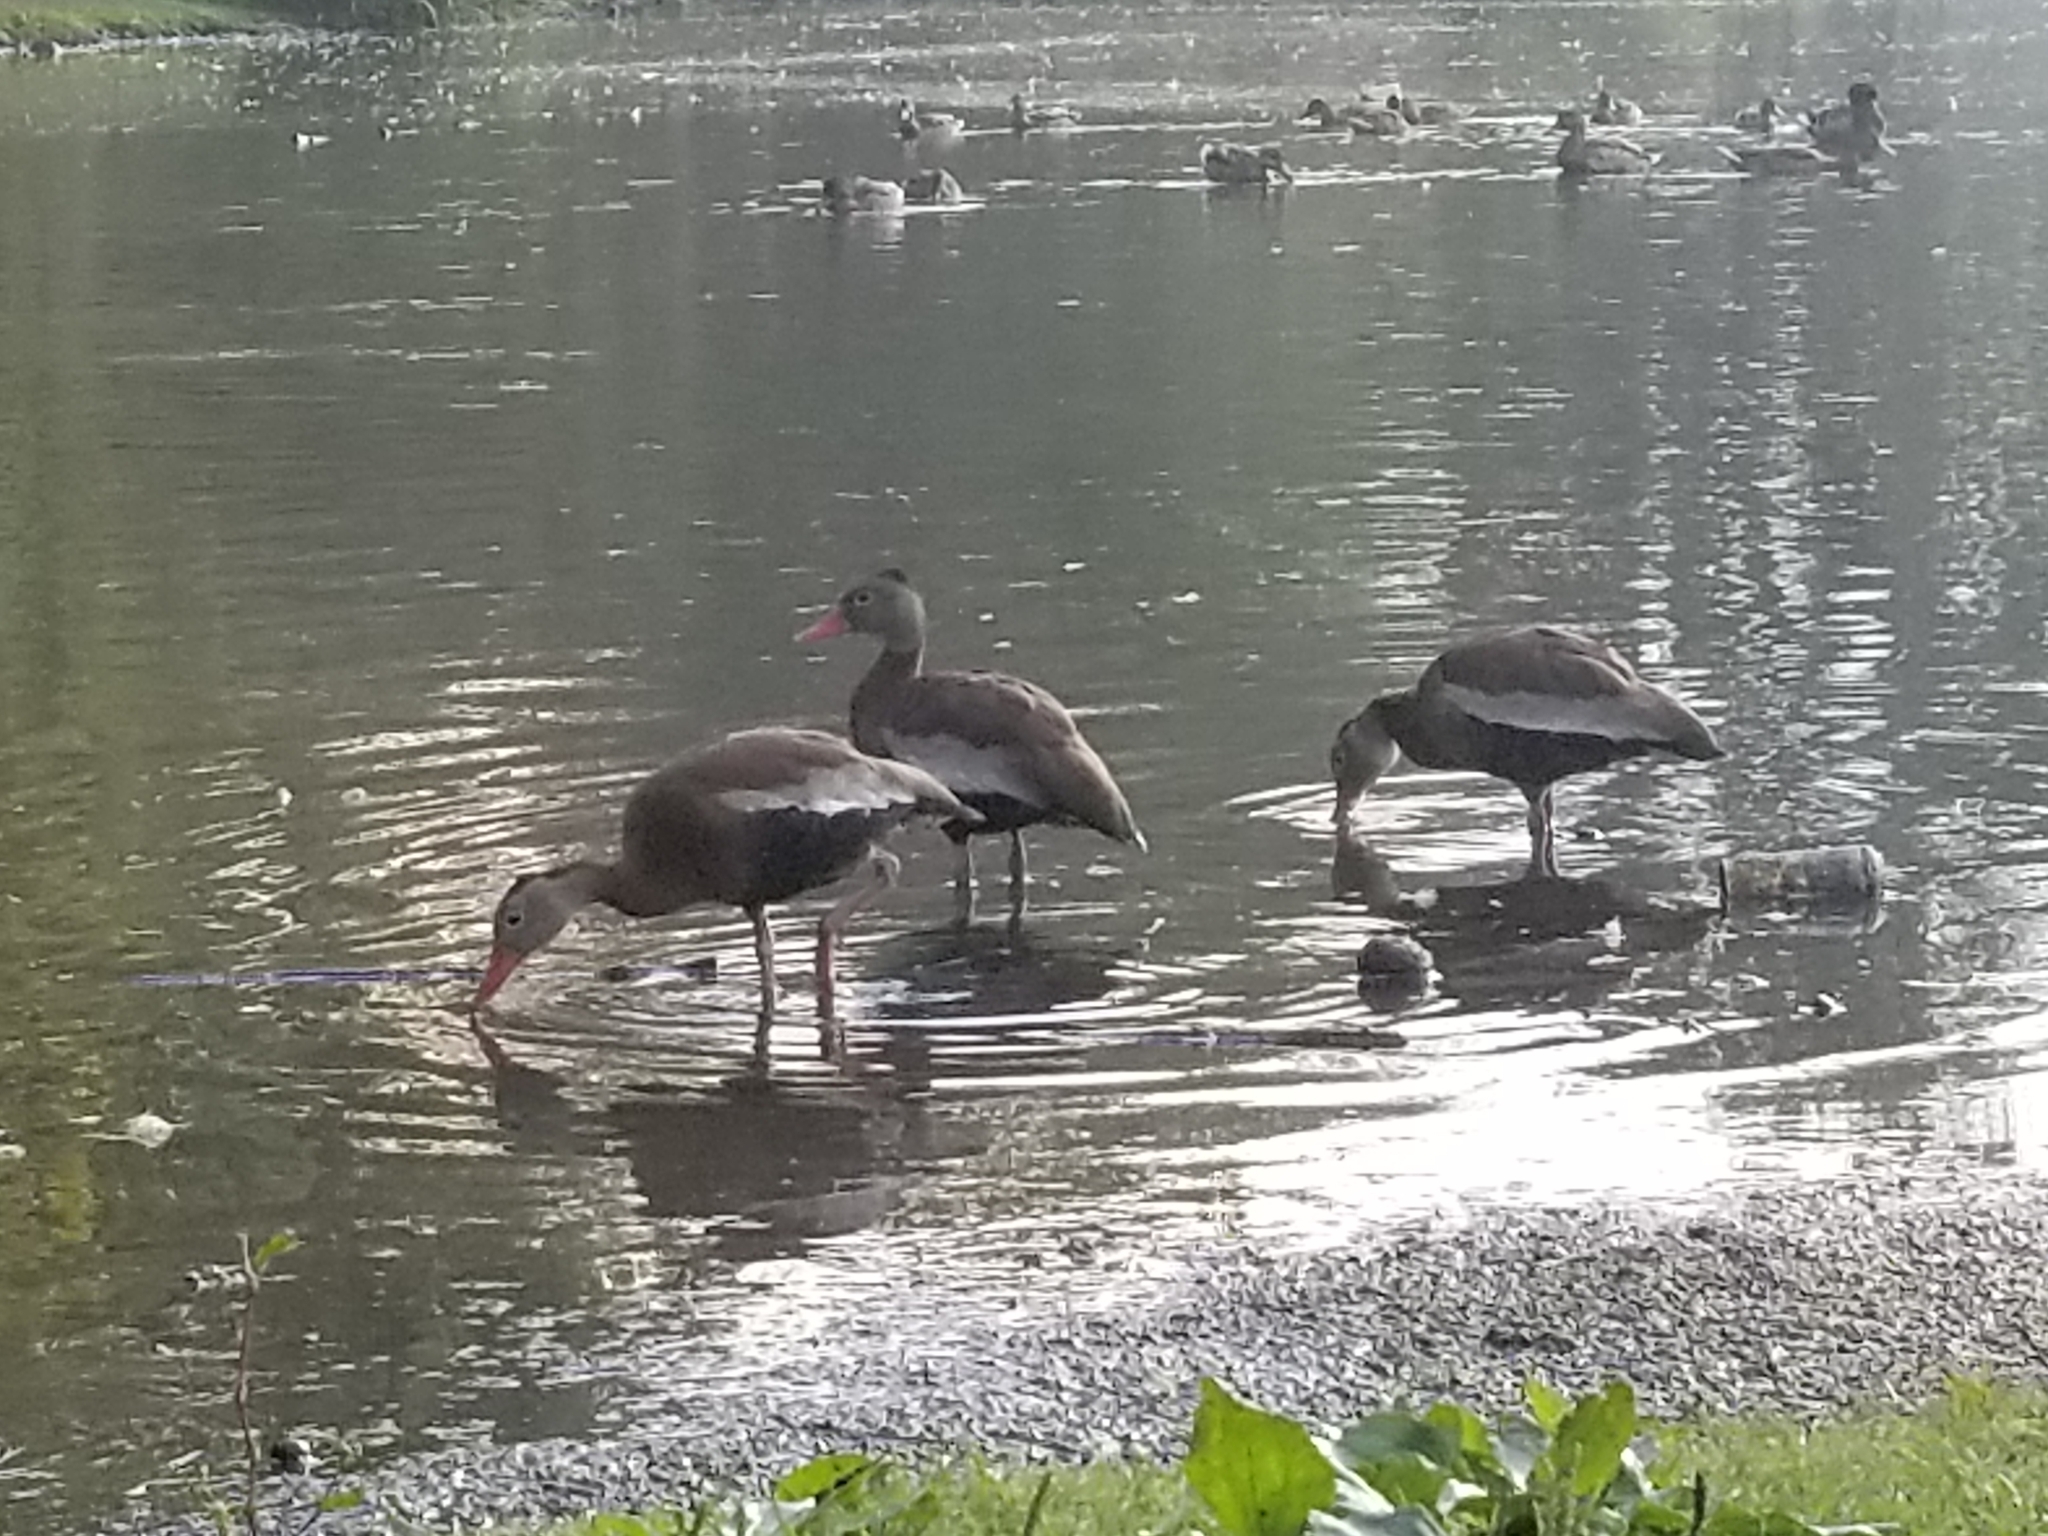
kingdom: Animalia
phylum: Chordata
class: Aves
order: Anseriformes
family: Anatidae
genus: Dendrocygna
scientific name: Dendrocygna autumnalis
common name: Black-bellied whistling duck
